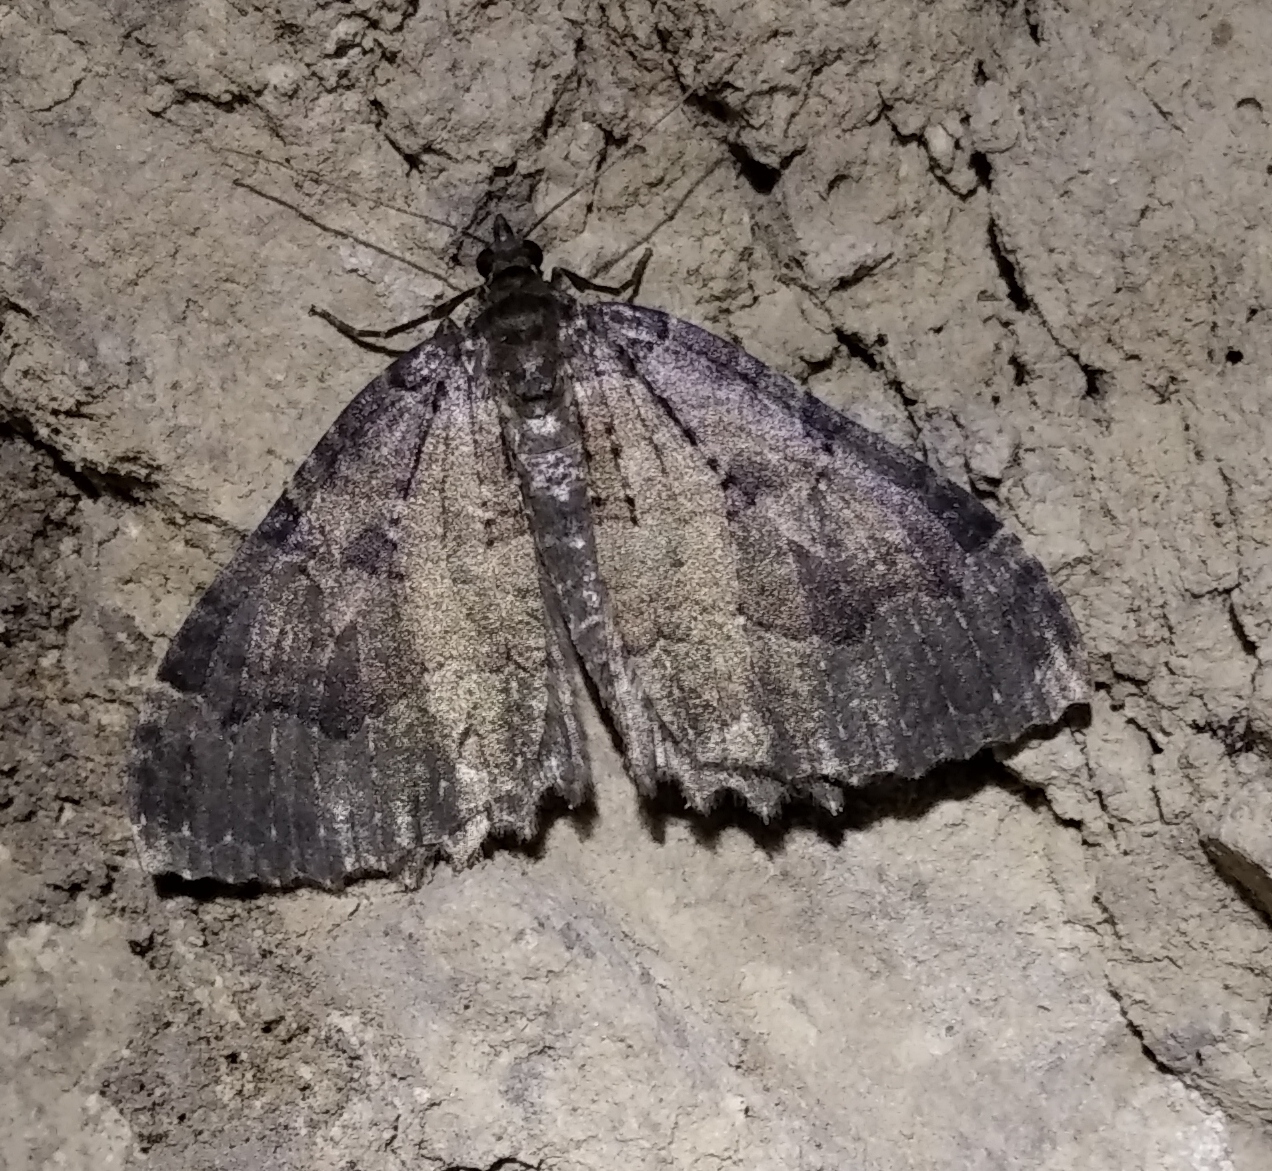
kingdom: Animalia
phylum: Arthropoda
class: Insecta
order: Lepidoptera
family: Geometridae
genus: Triphosa
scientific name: Triphosa dubitata
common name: Tissue
